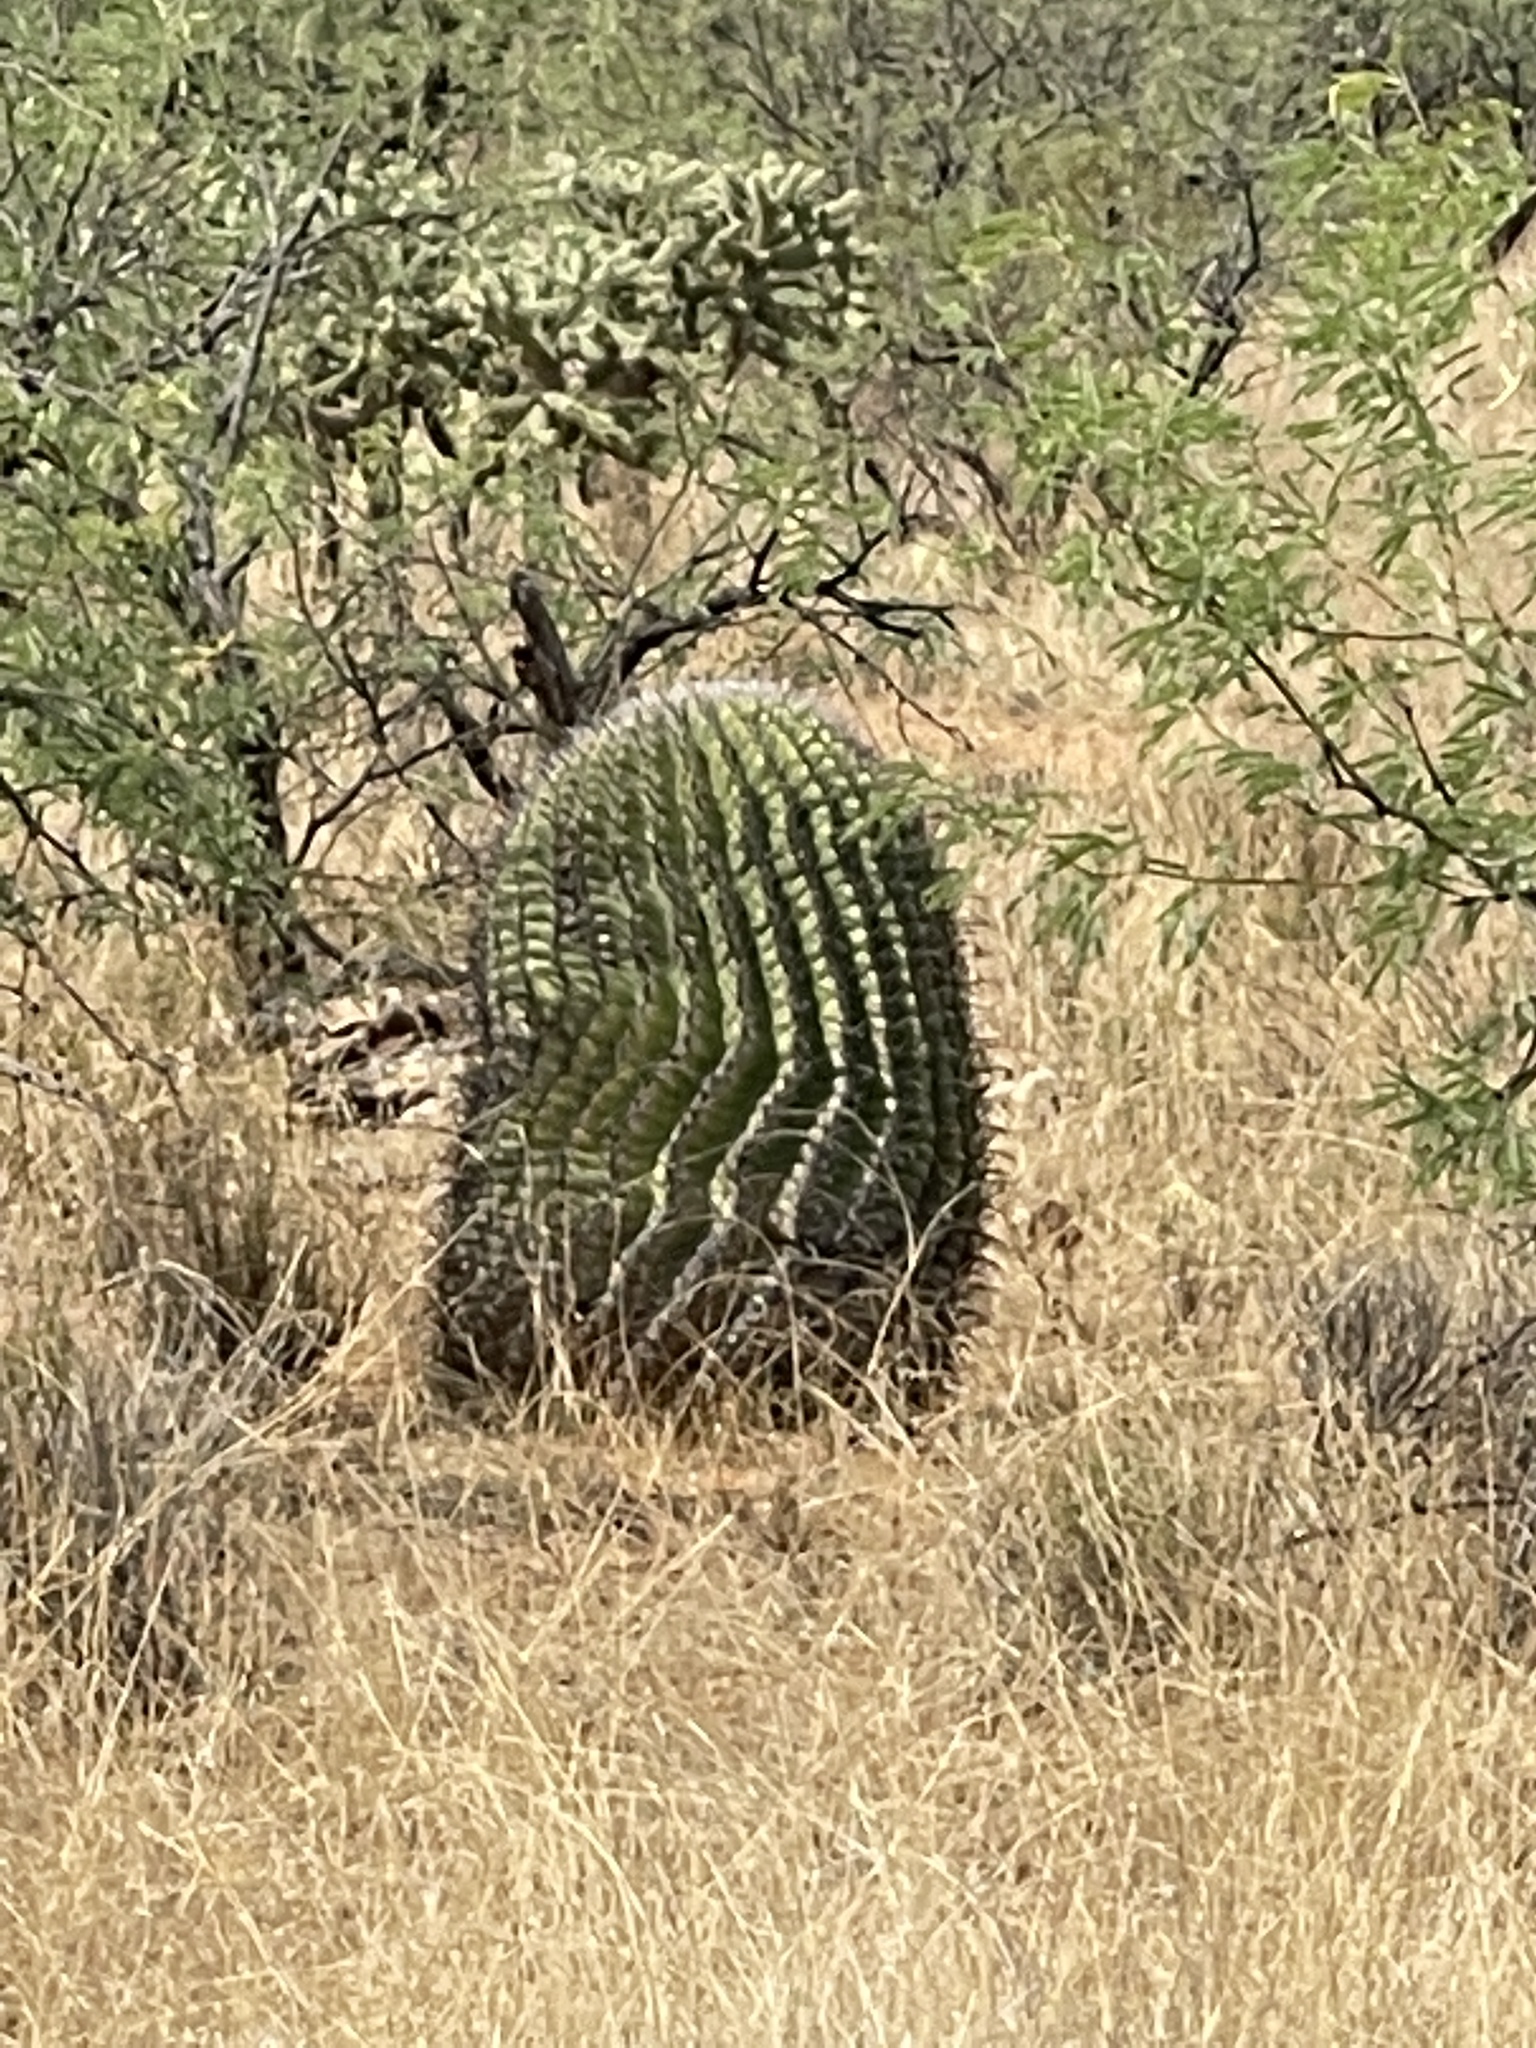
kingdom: Plantae
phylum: Tracheophyta
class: Magnoliopsida
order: Caryophyllales
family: Cactaceae
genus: Ferocactus
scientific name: Ferocactus wislizeni
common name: Candy barrel cactus
